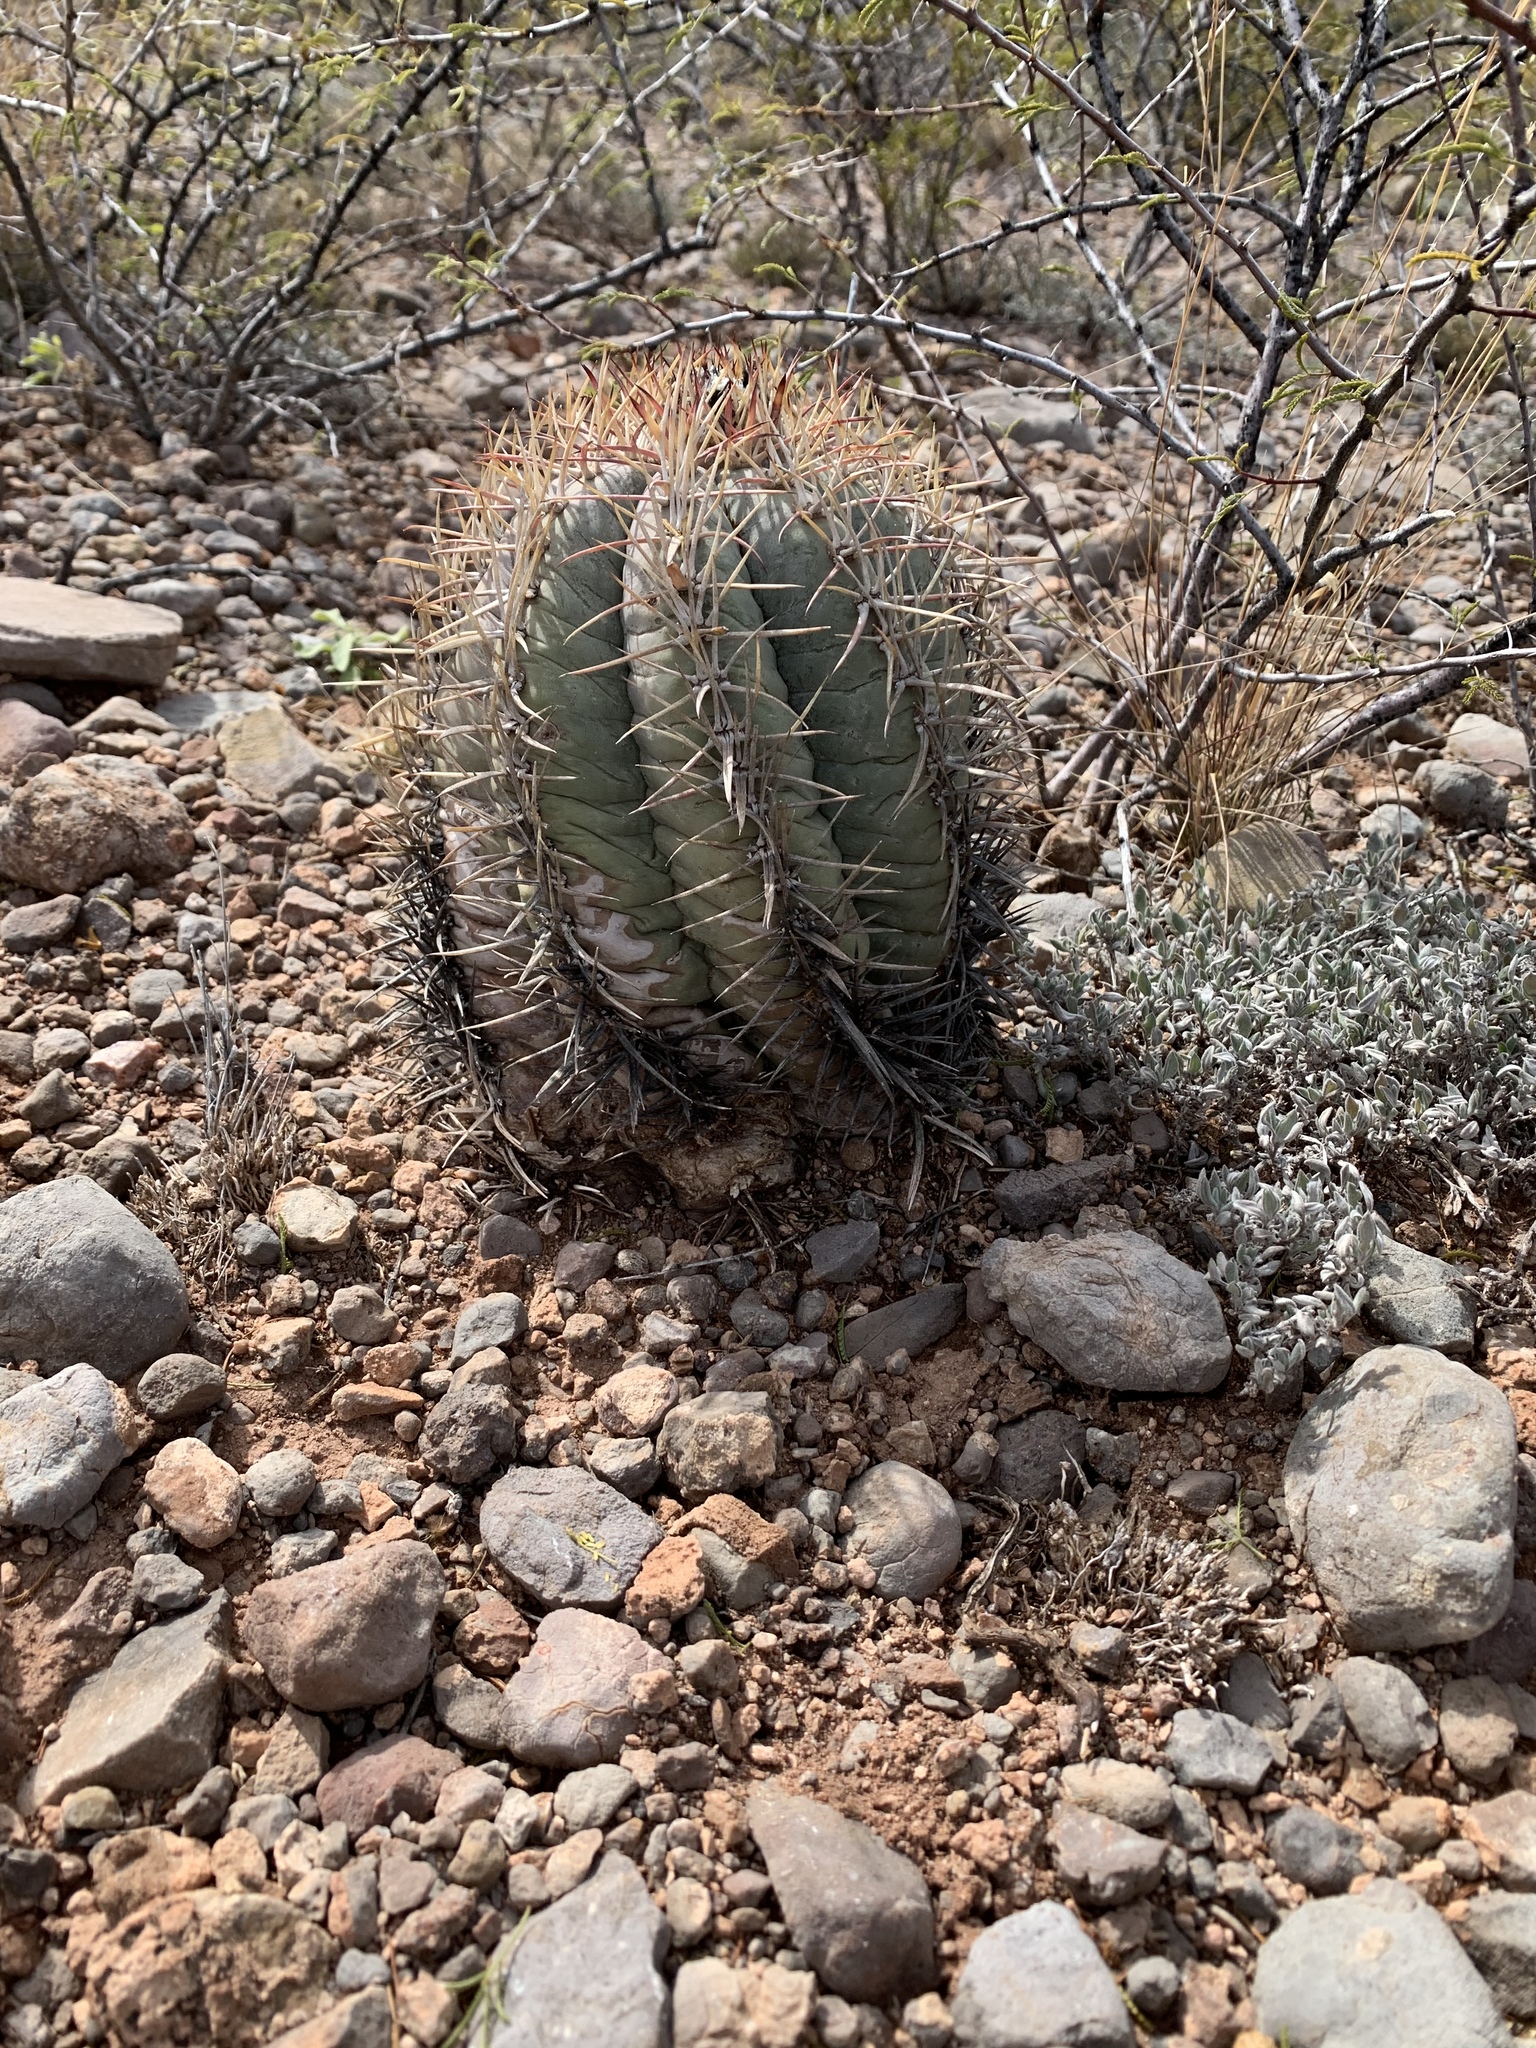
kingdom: Plantae
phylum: Tracheophyta
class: Magnoliopsida
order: Caryophyllales
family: Cactaceae
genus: Echinocactus
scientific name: Echinocactus horizonthalonius
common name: Devilshead
